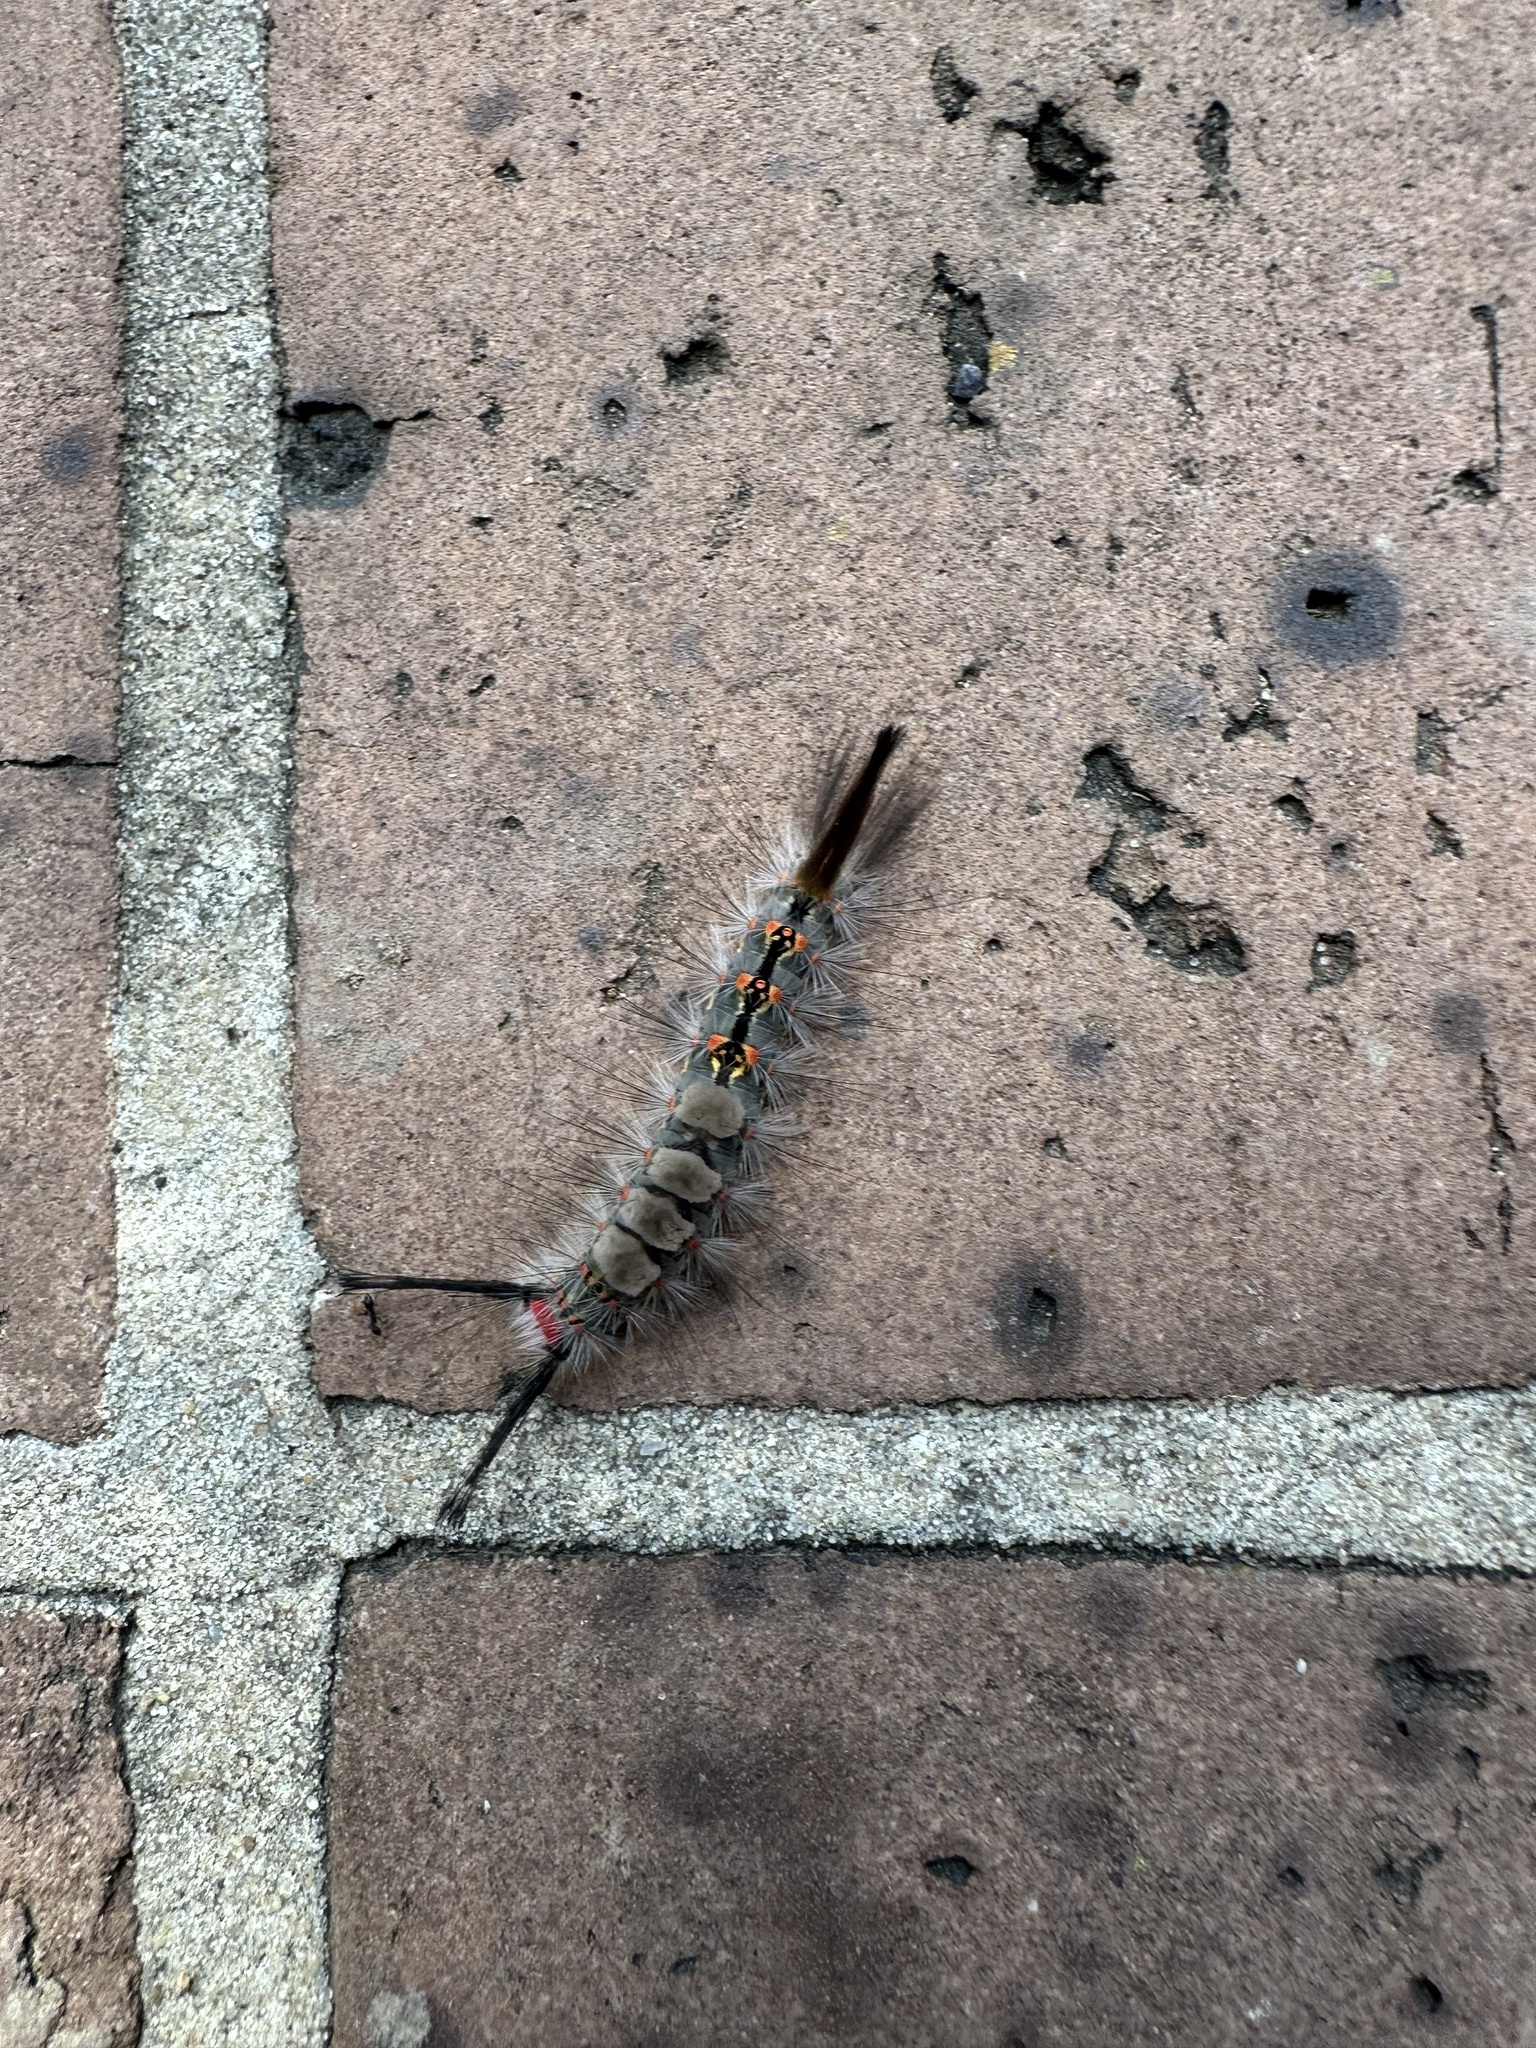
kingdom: Animalia
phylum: Arthropoda
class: Insecta
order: Lepidoptera
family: Erebidae
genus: Orgyia
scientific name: Orgyia detrita
